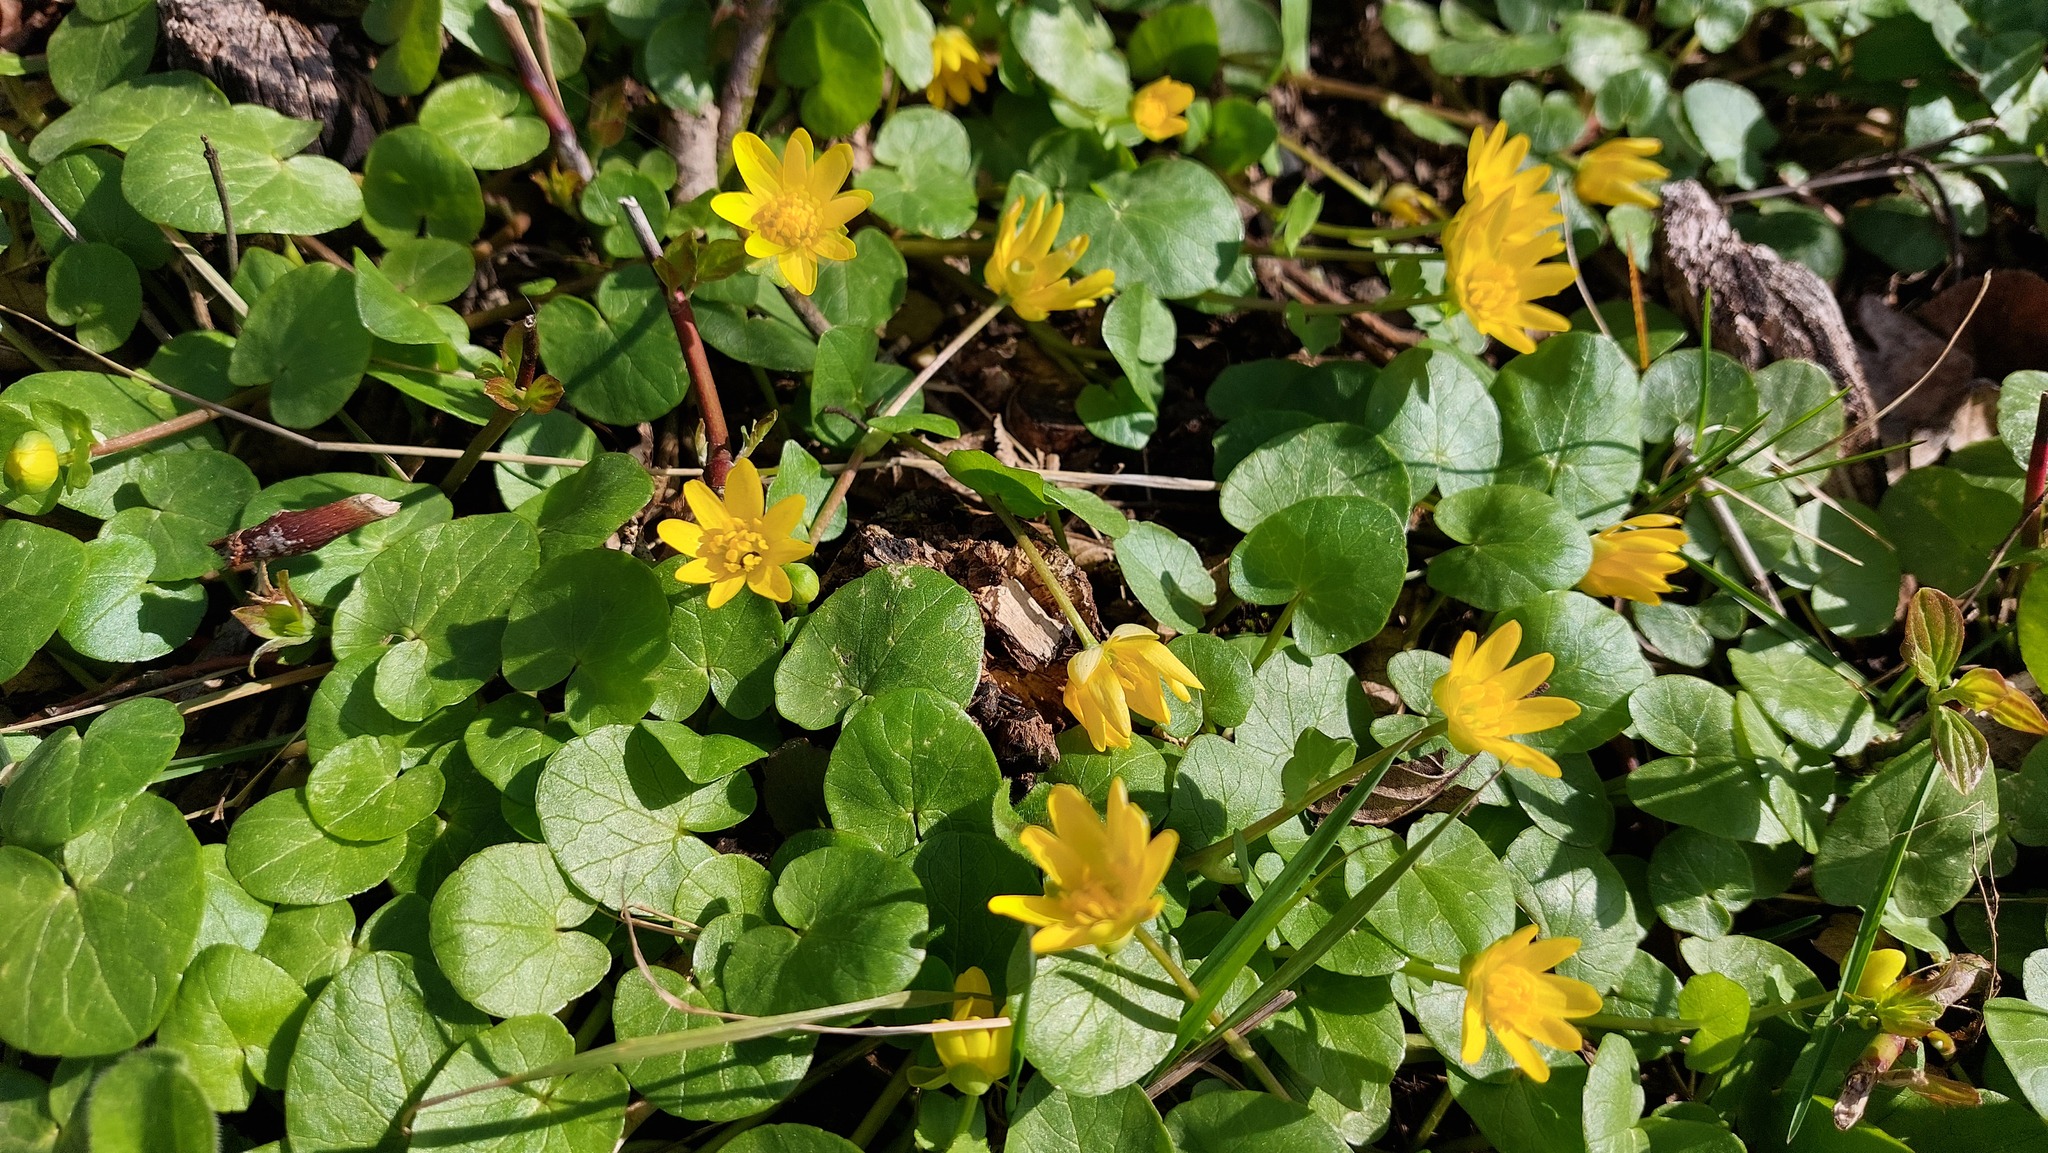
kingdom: Plantae
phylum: Tracheophyta
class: Magnoliopsida
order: Ranunculales
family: Ranunculaceae
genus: Ficaria
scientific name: Ficaria verna
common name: Lesser celandine
